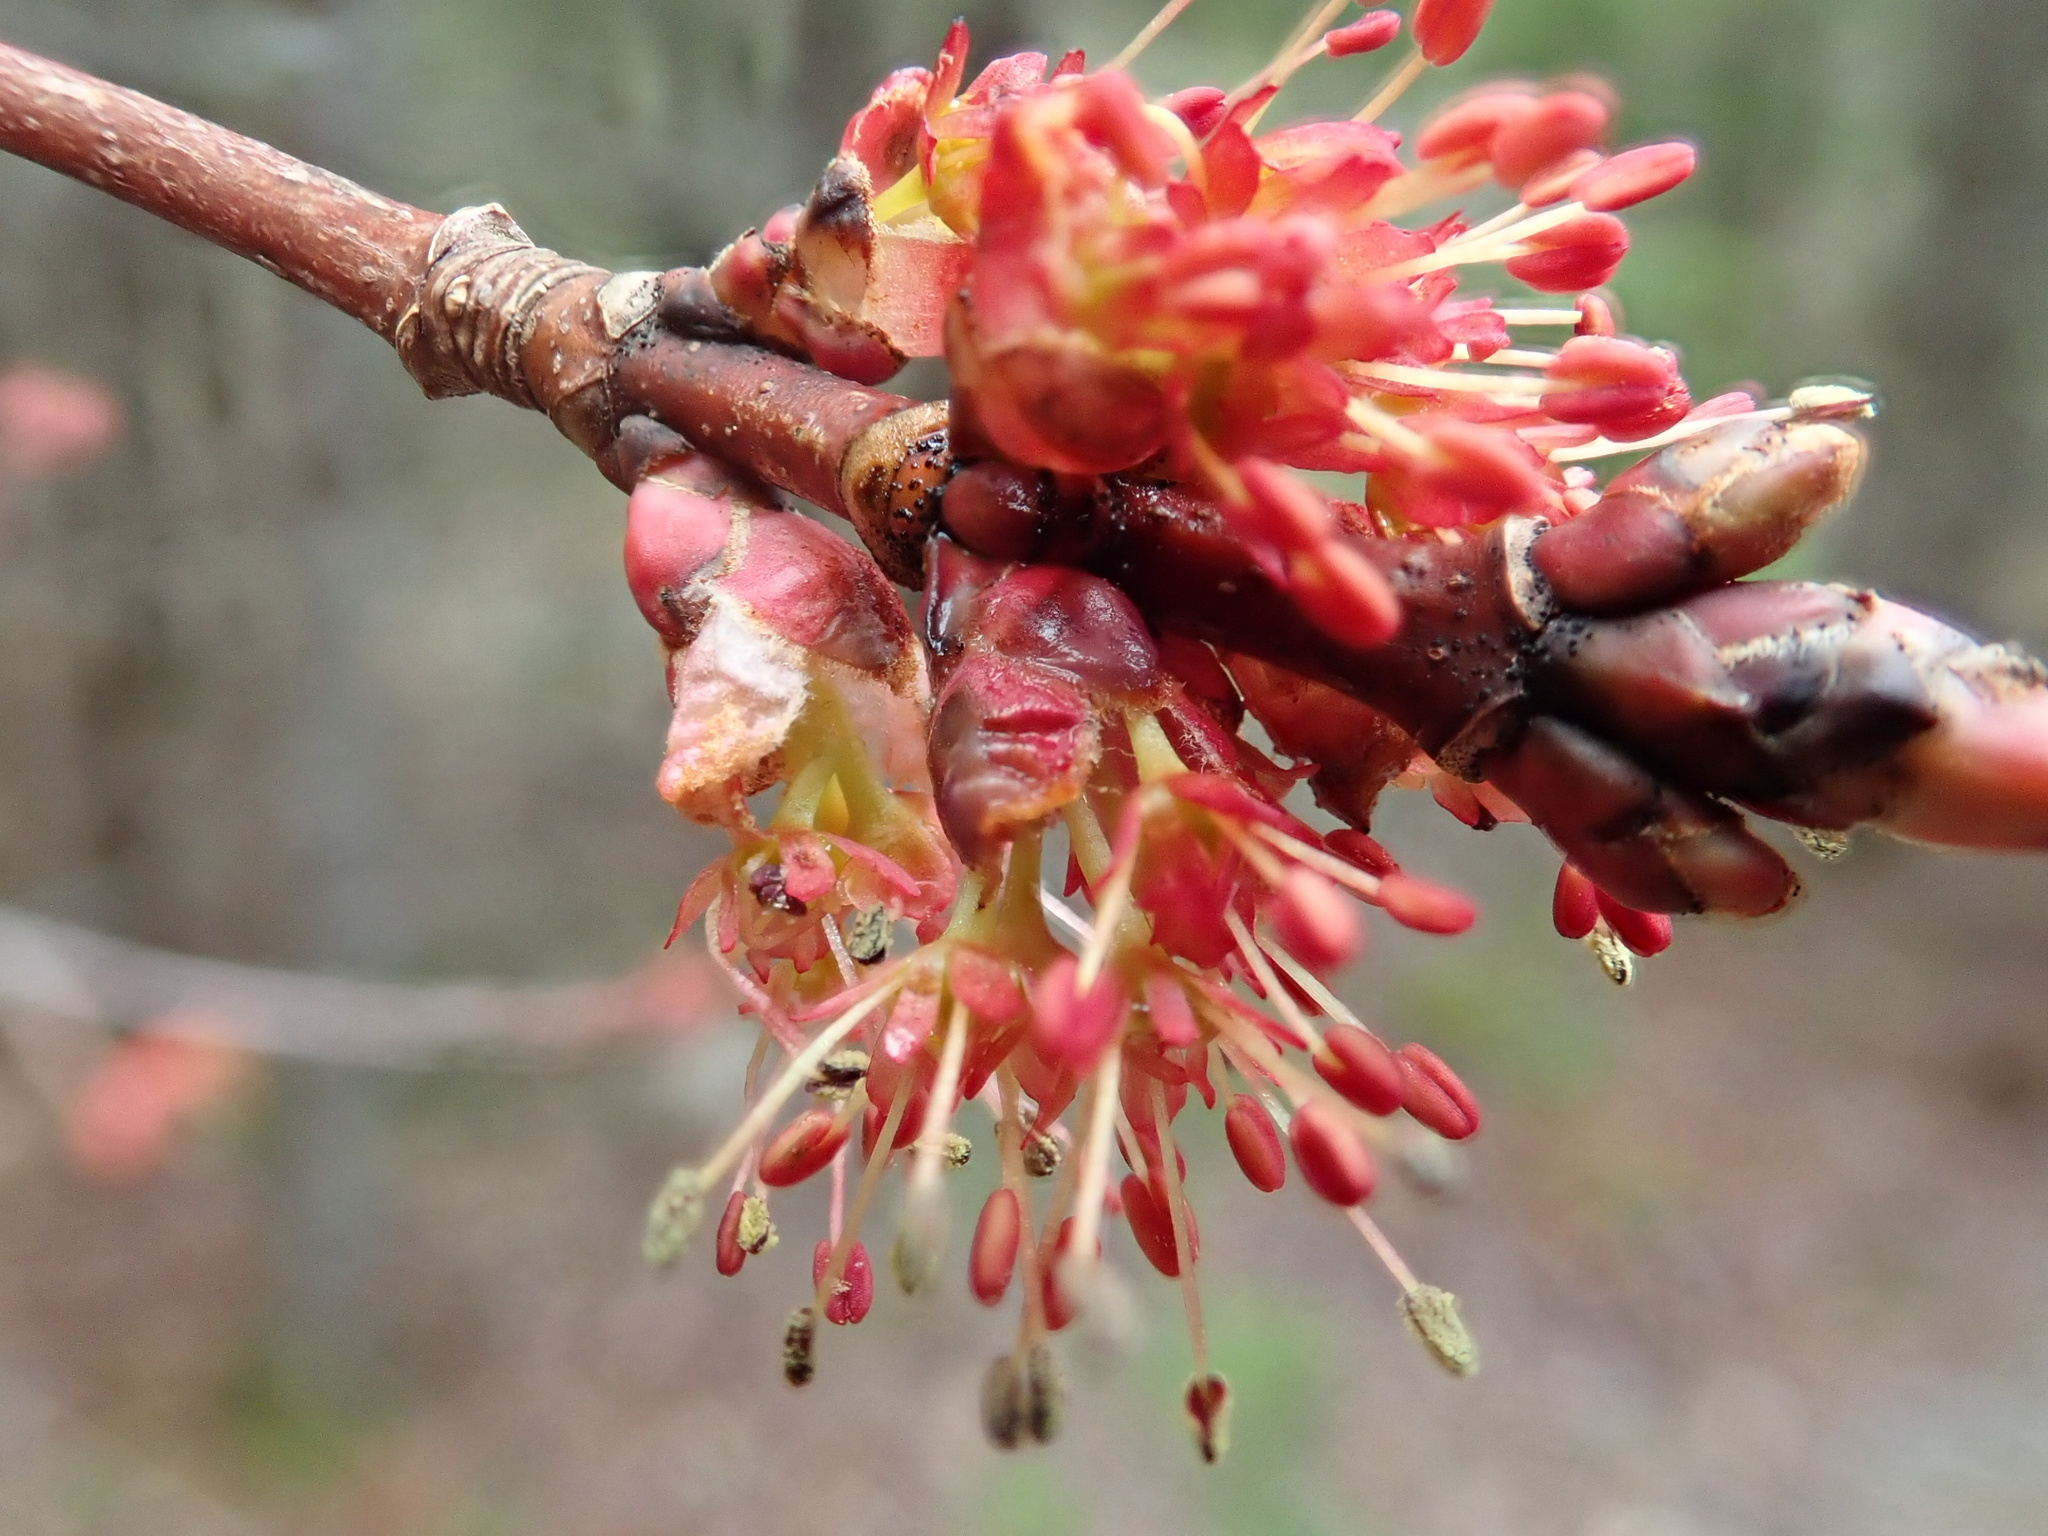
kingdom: Plantae
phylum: Tracheophyta
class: Magnoliopsida
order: Sapindales
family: Sapindaceae
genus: Acer
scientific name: Acer rubrum
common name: Red maple
